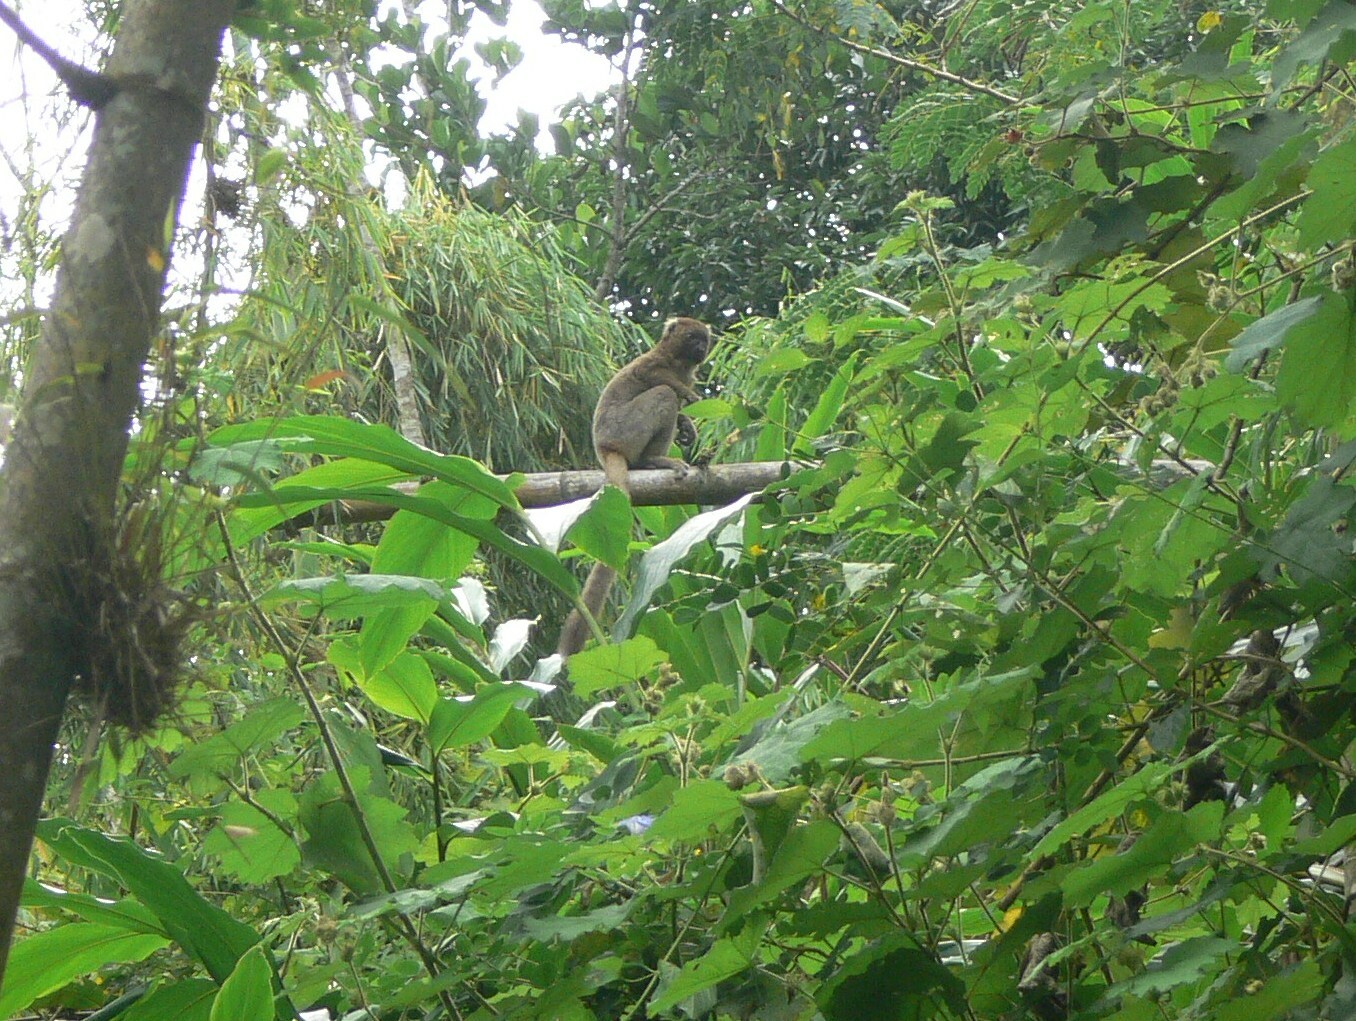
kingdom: Animalia
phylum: Chordata
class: Mammalia
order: Primates
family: Lemuridae
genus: Prolemur
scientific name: Prolemur simus
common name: Greater bamboo lemur
